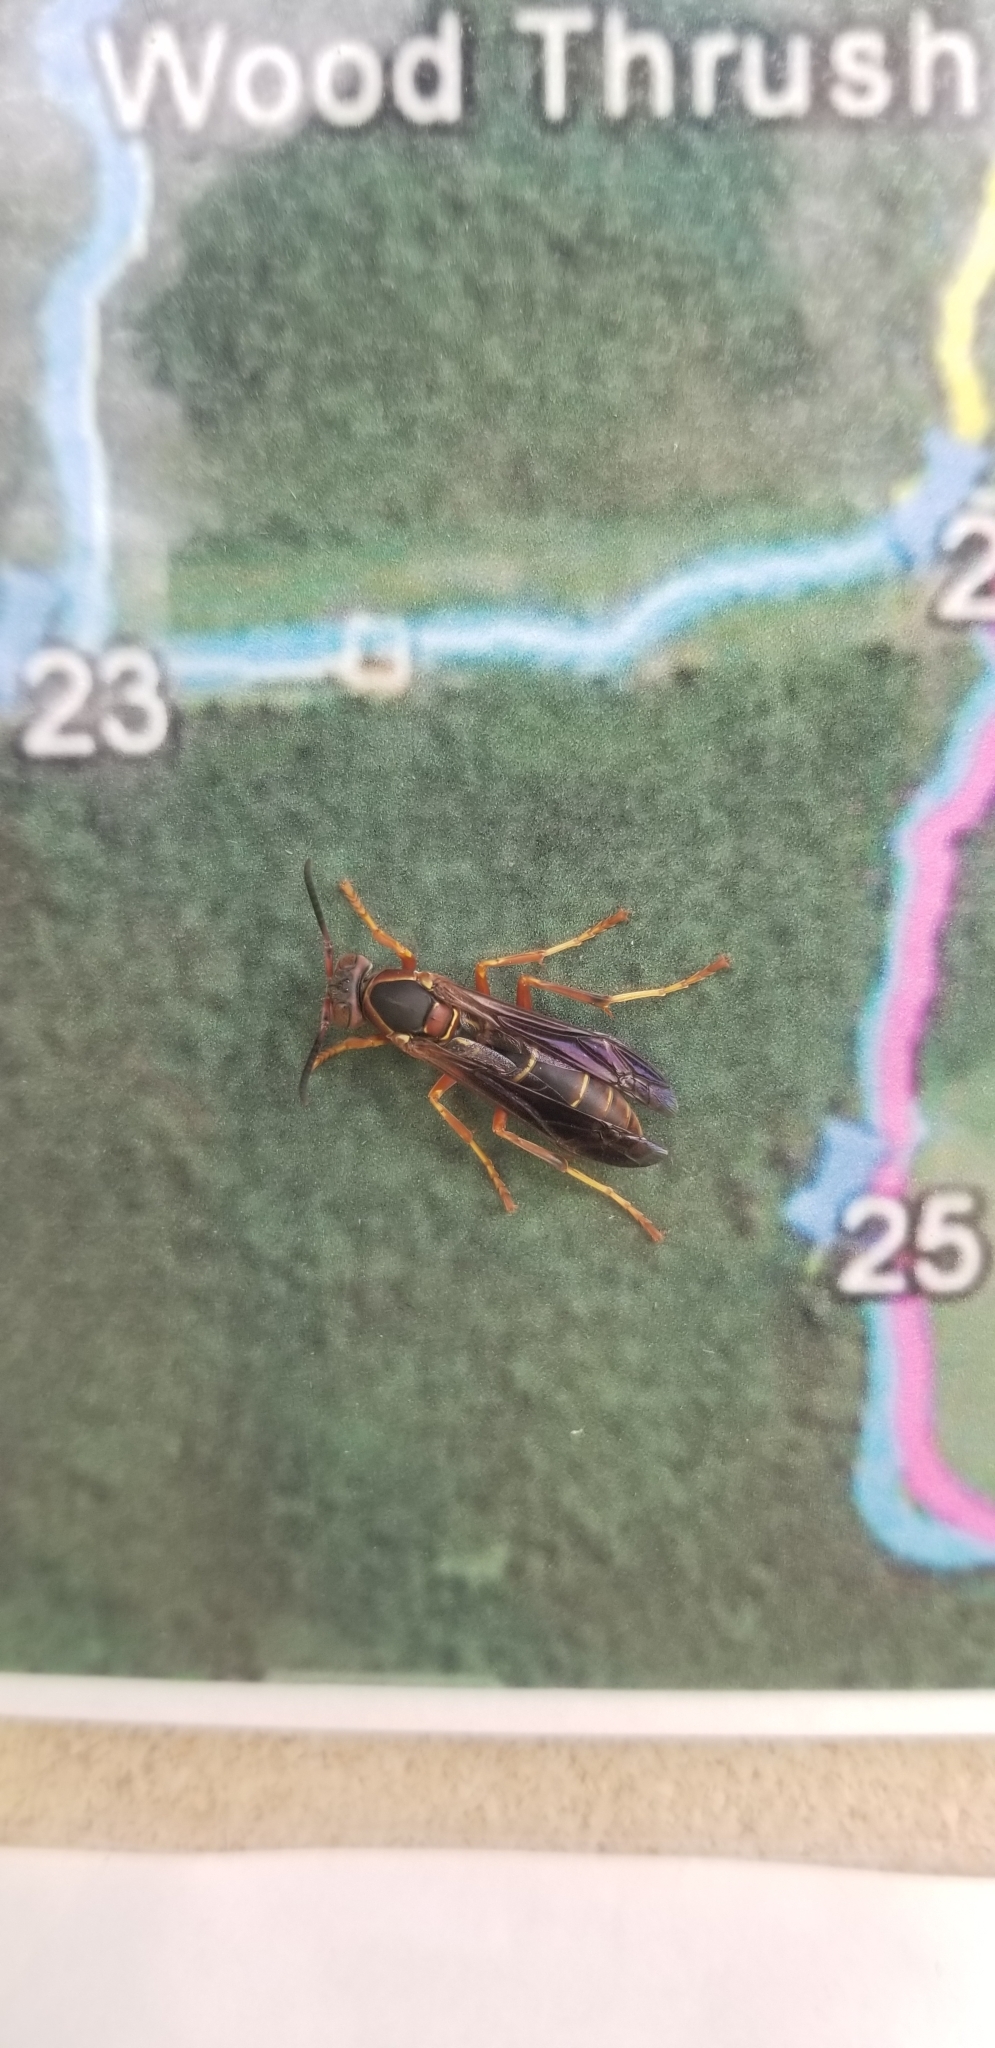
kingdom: Animalia
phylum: Arthropoda
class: Insecta
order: Hymenoptera
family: Eumenidae
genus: Polistes
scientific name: Polistes fuscatus
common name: Dark paper wasp
